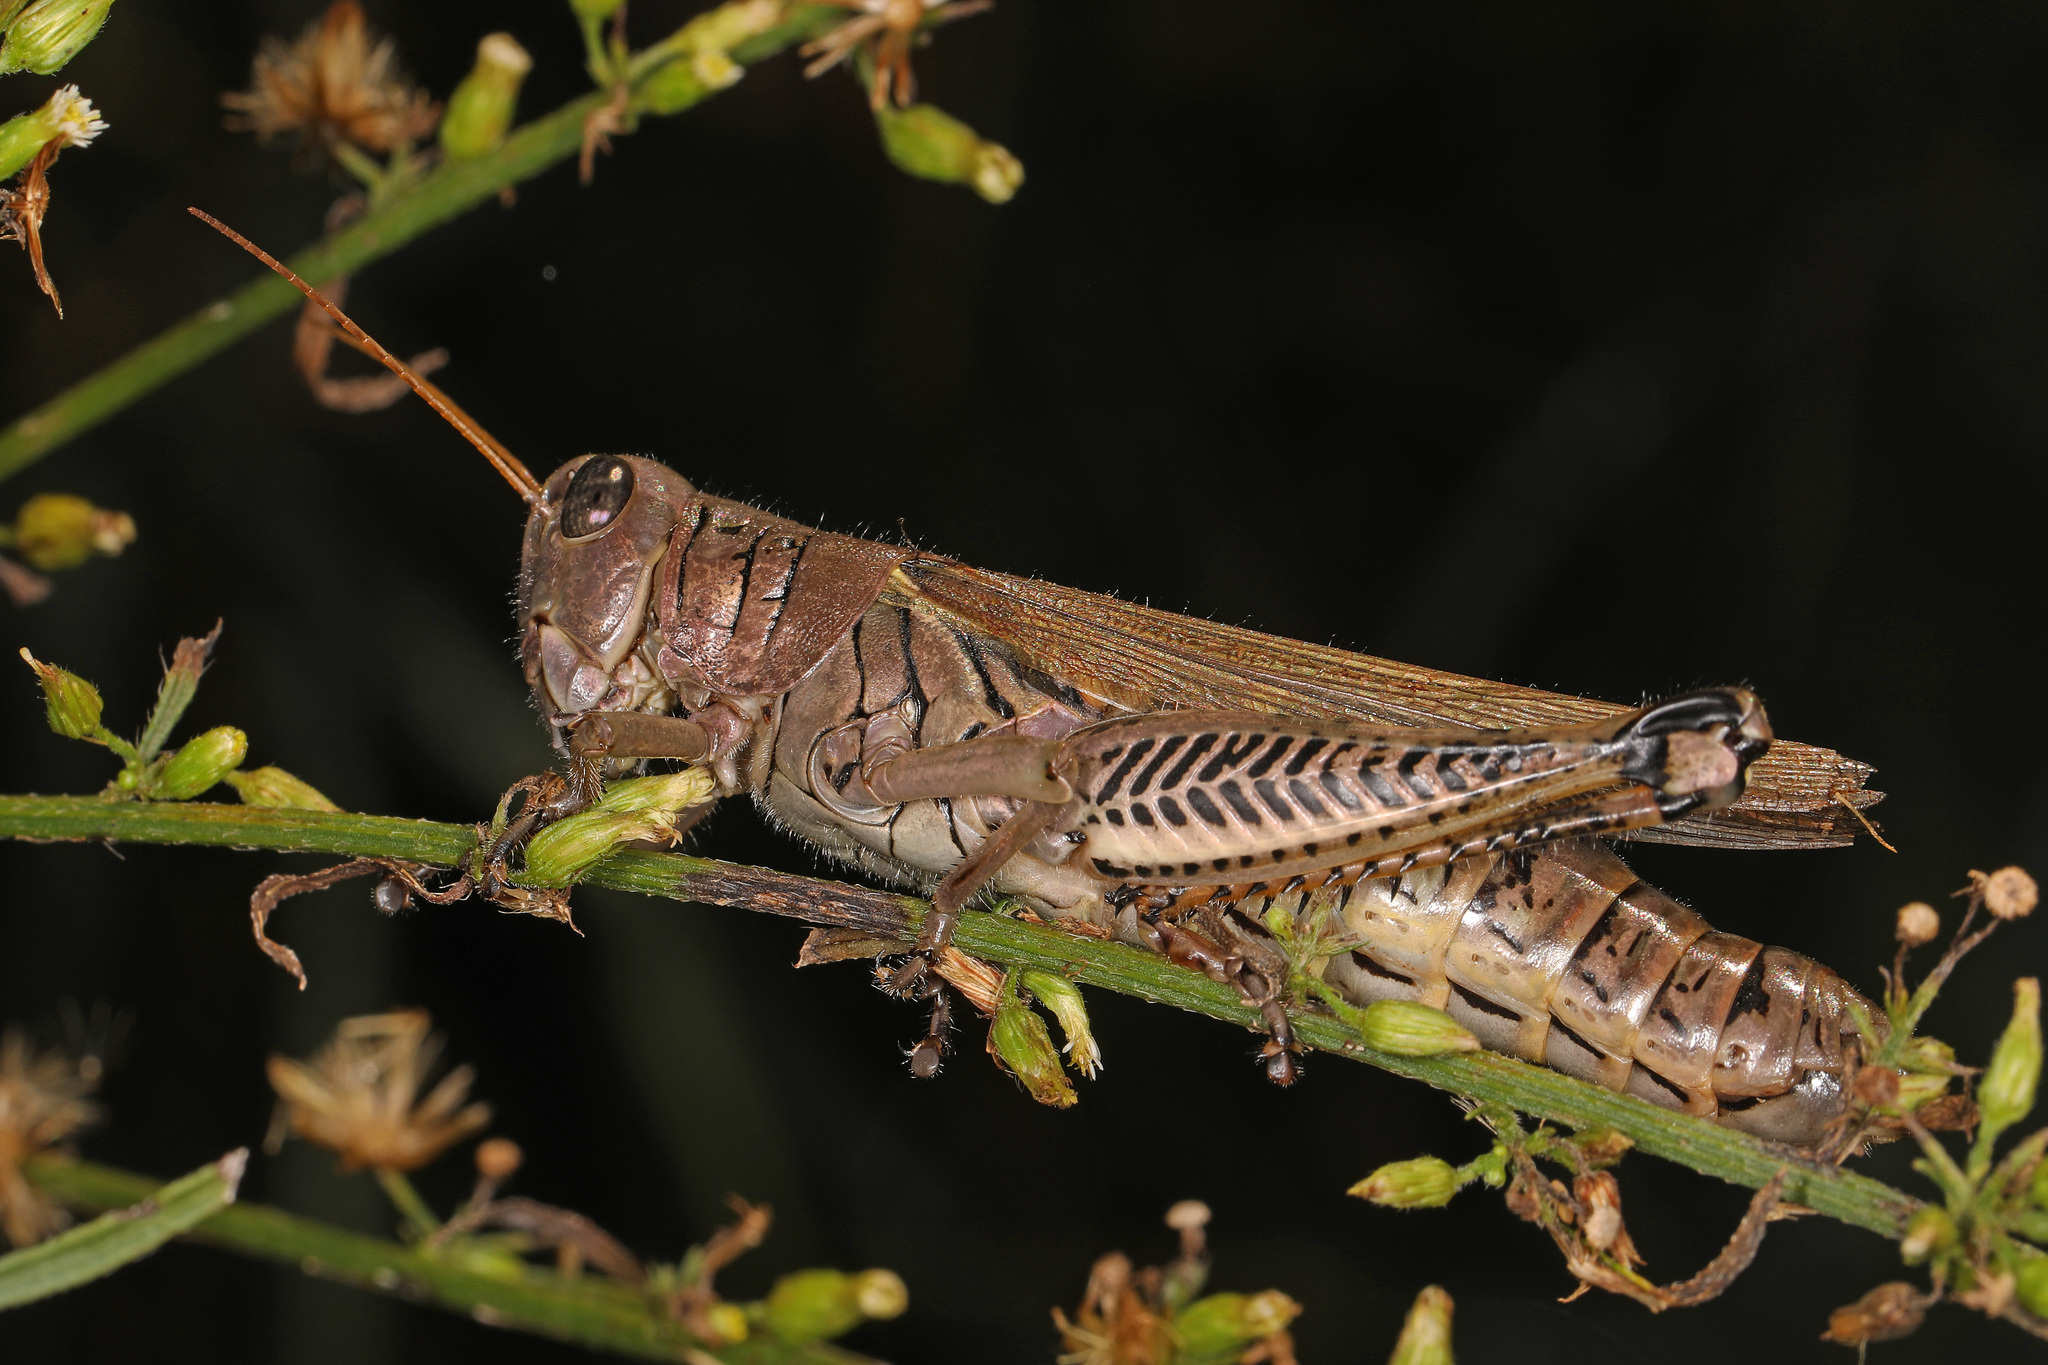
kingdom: Animalia
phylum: Arthropoda
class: Insecta
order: Orthoptera
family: Acrididae
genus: Melanoplus
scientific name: Melanoplus differentialis
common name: Differential grasshopper
